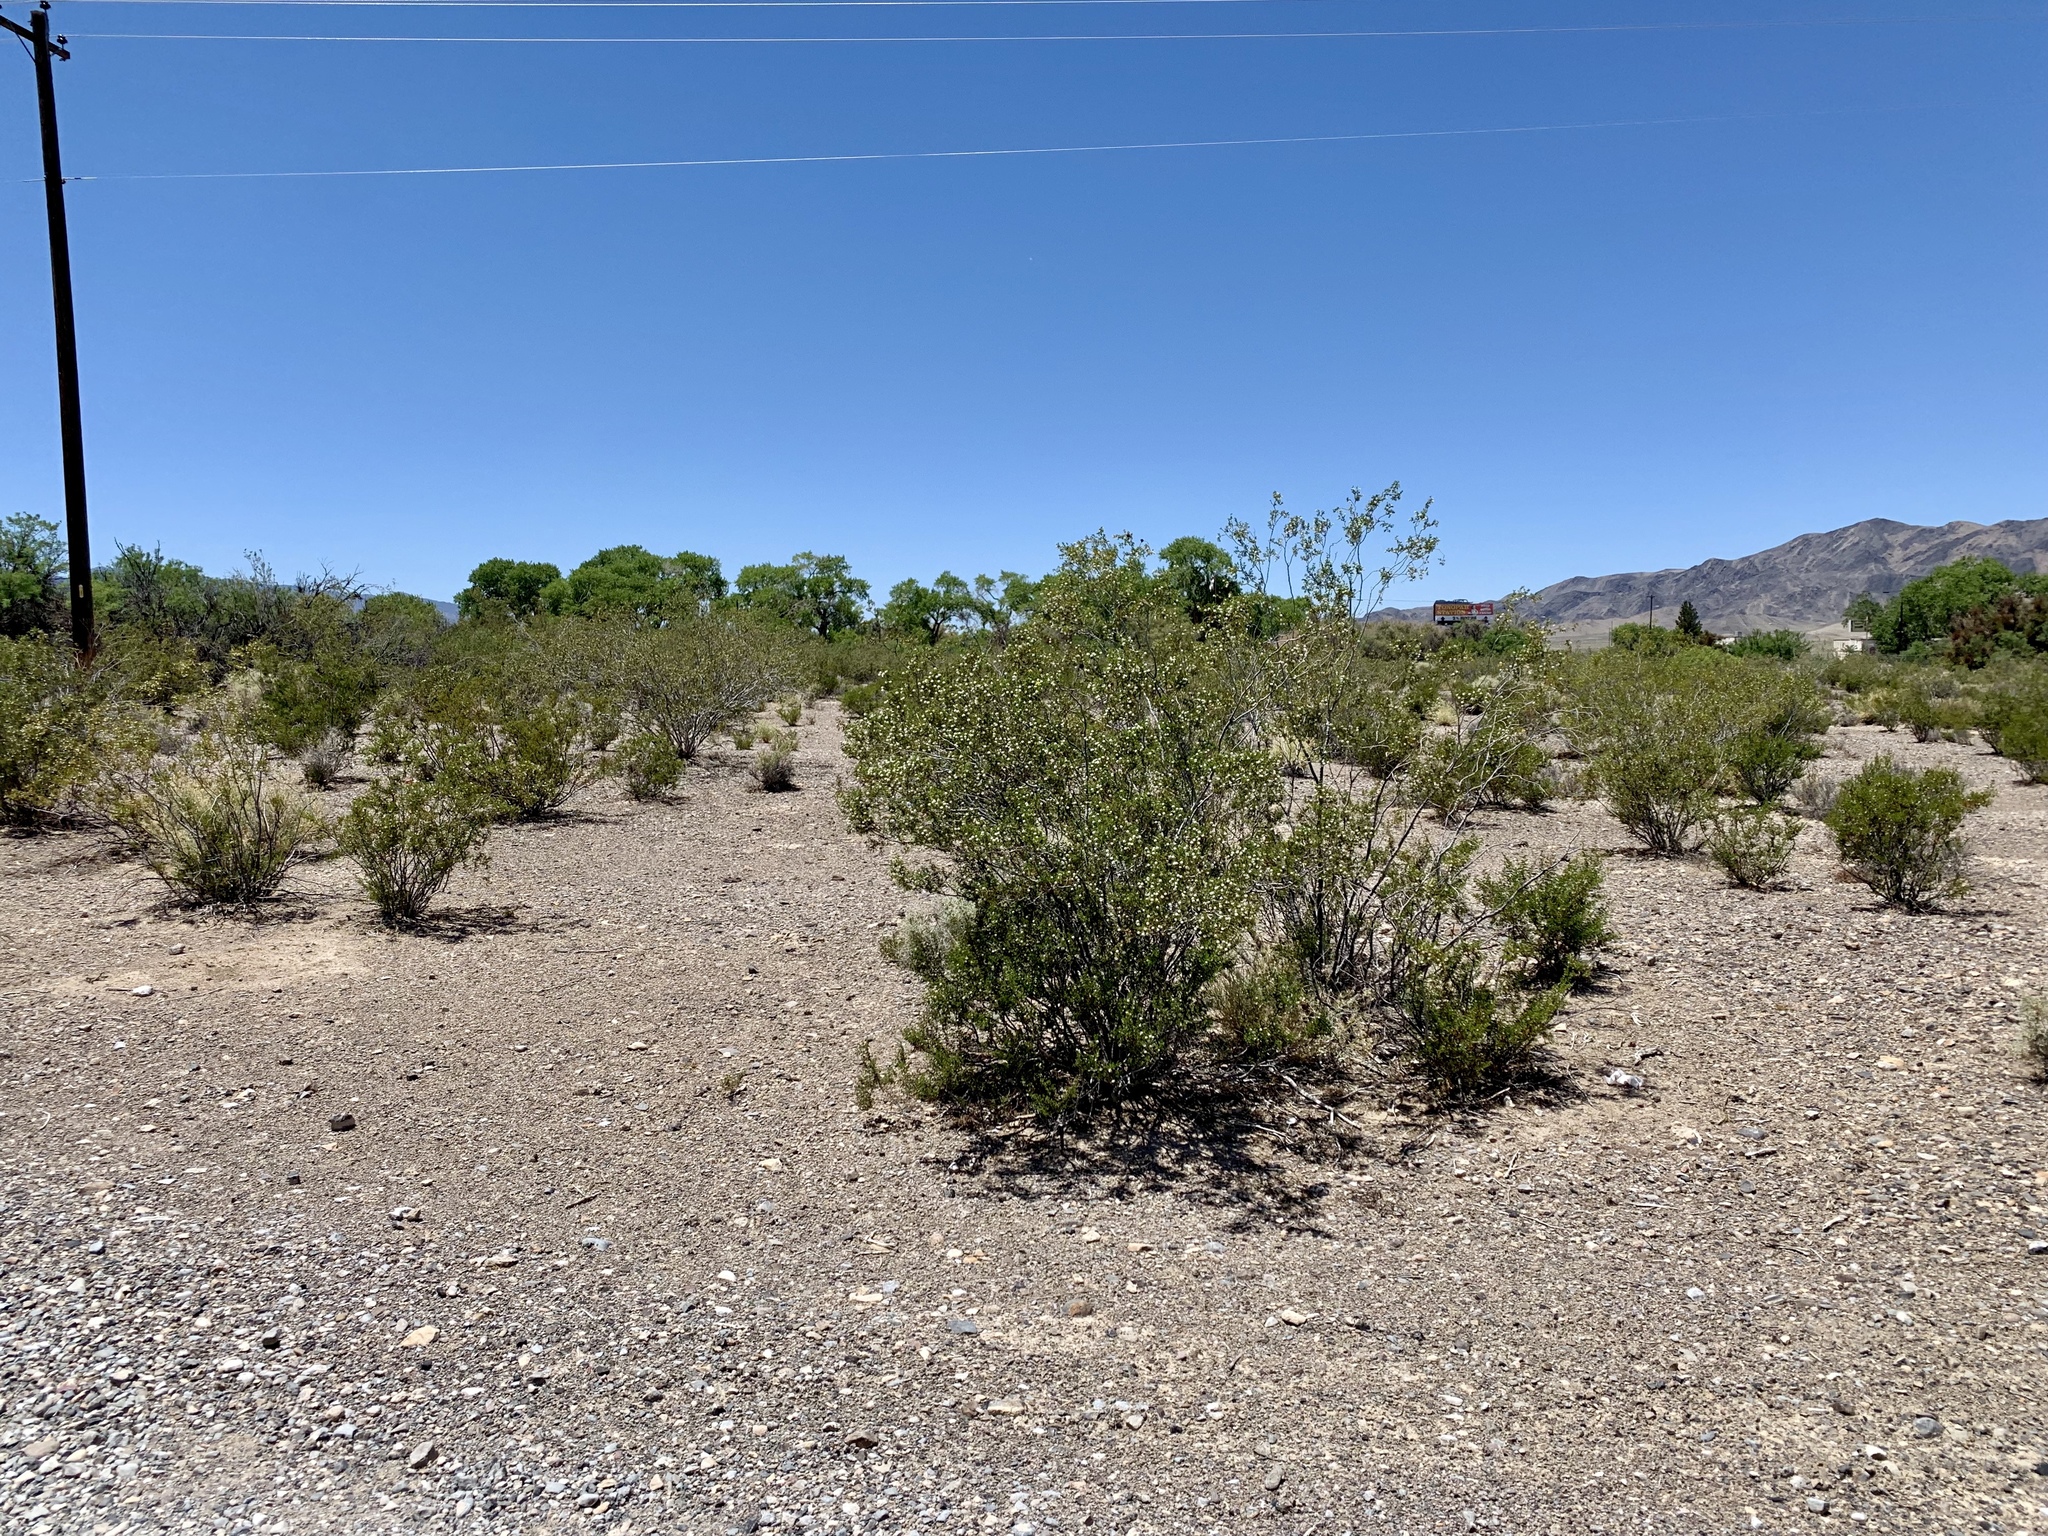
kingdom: Plantae
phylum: Tracheophyta
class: Magnoliopsida
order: Zygophyllales
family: Zygophyllaceae
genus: Larrea
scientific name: Larrea tridentata
